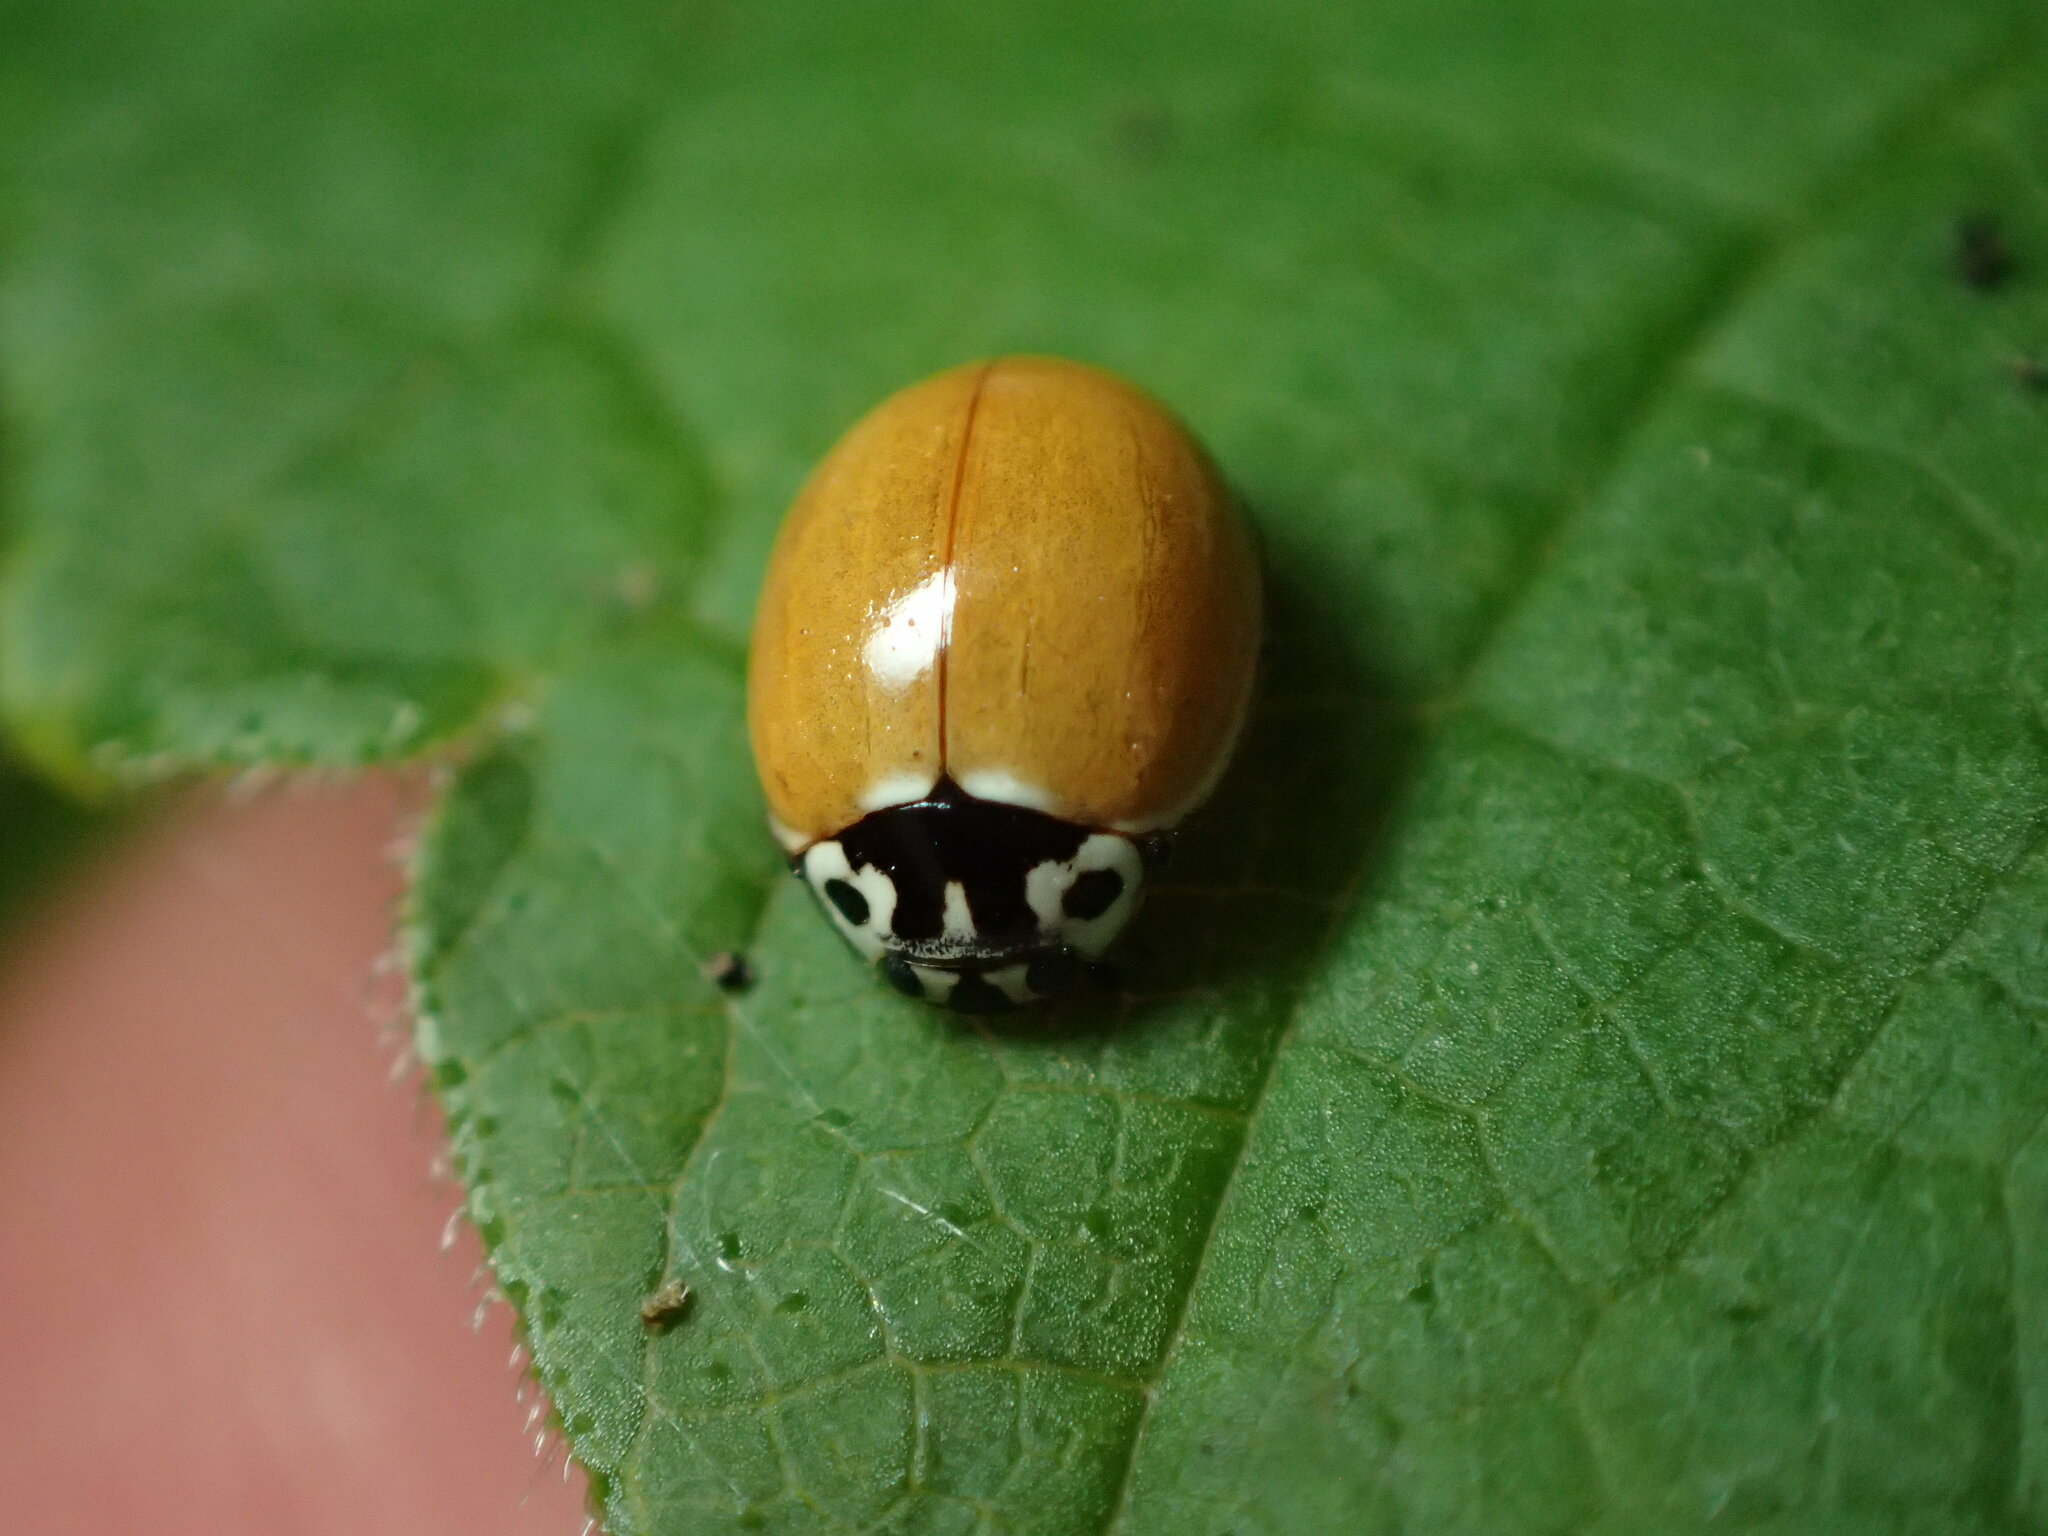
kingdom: Animalia
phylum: Arthropoda
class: Insecta
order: Coleoptera
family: Coccinellidae
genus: Cycloneda
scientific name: Cycloneda polita
